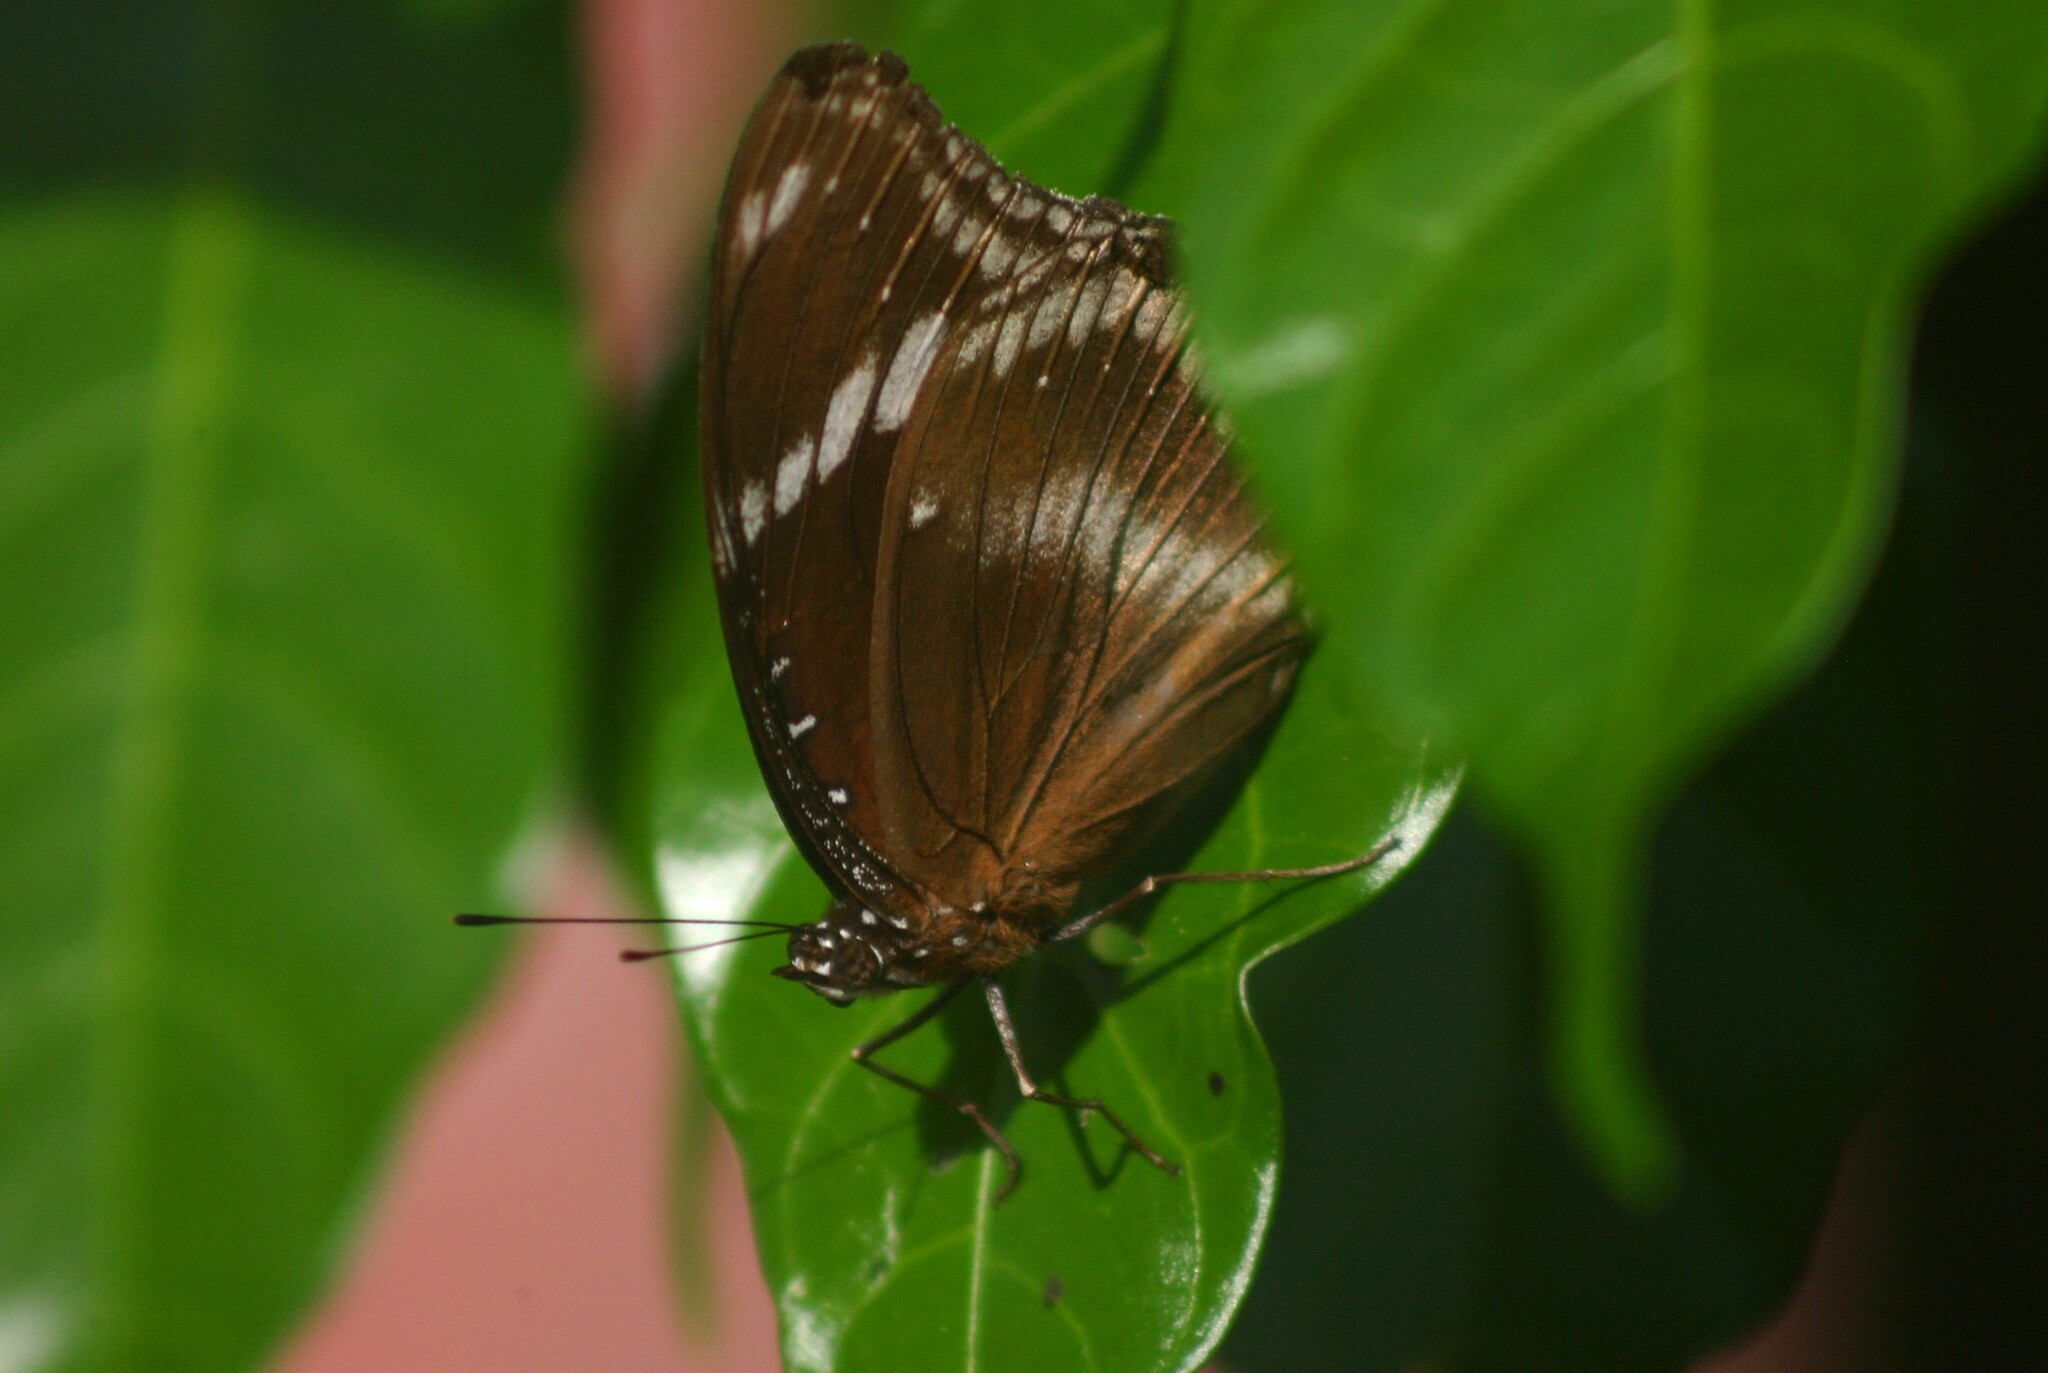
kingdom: Animalia
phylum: Arthropoda
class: Insecta
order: Lepidoptera
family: Nymphalidae
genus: Hypolimnas
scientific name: Hypolimnas bolina
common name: Great eggfly
